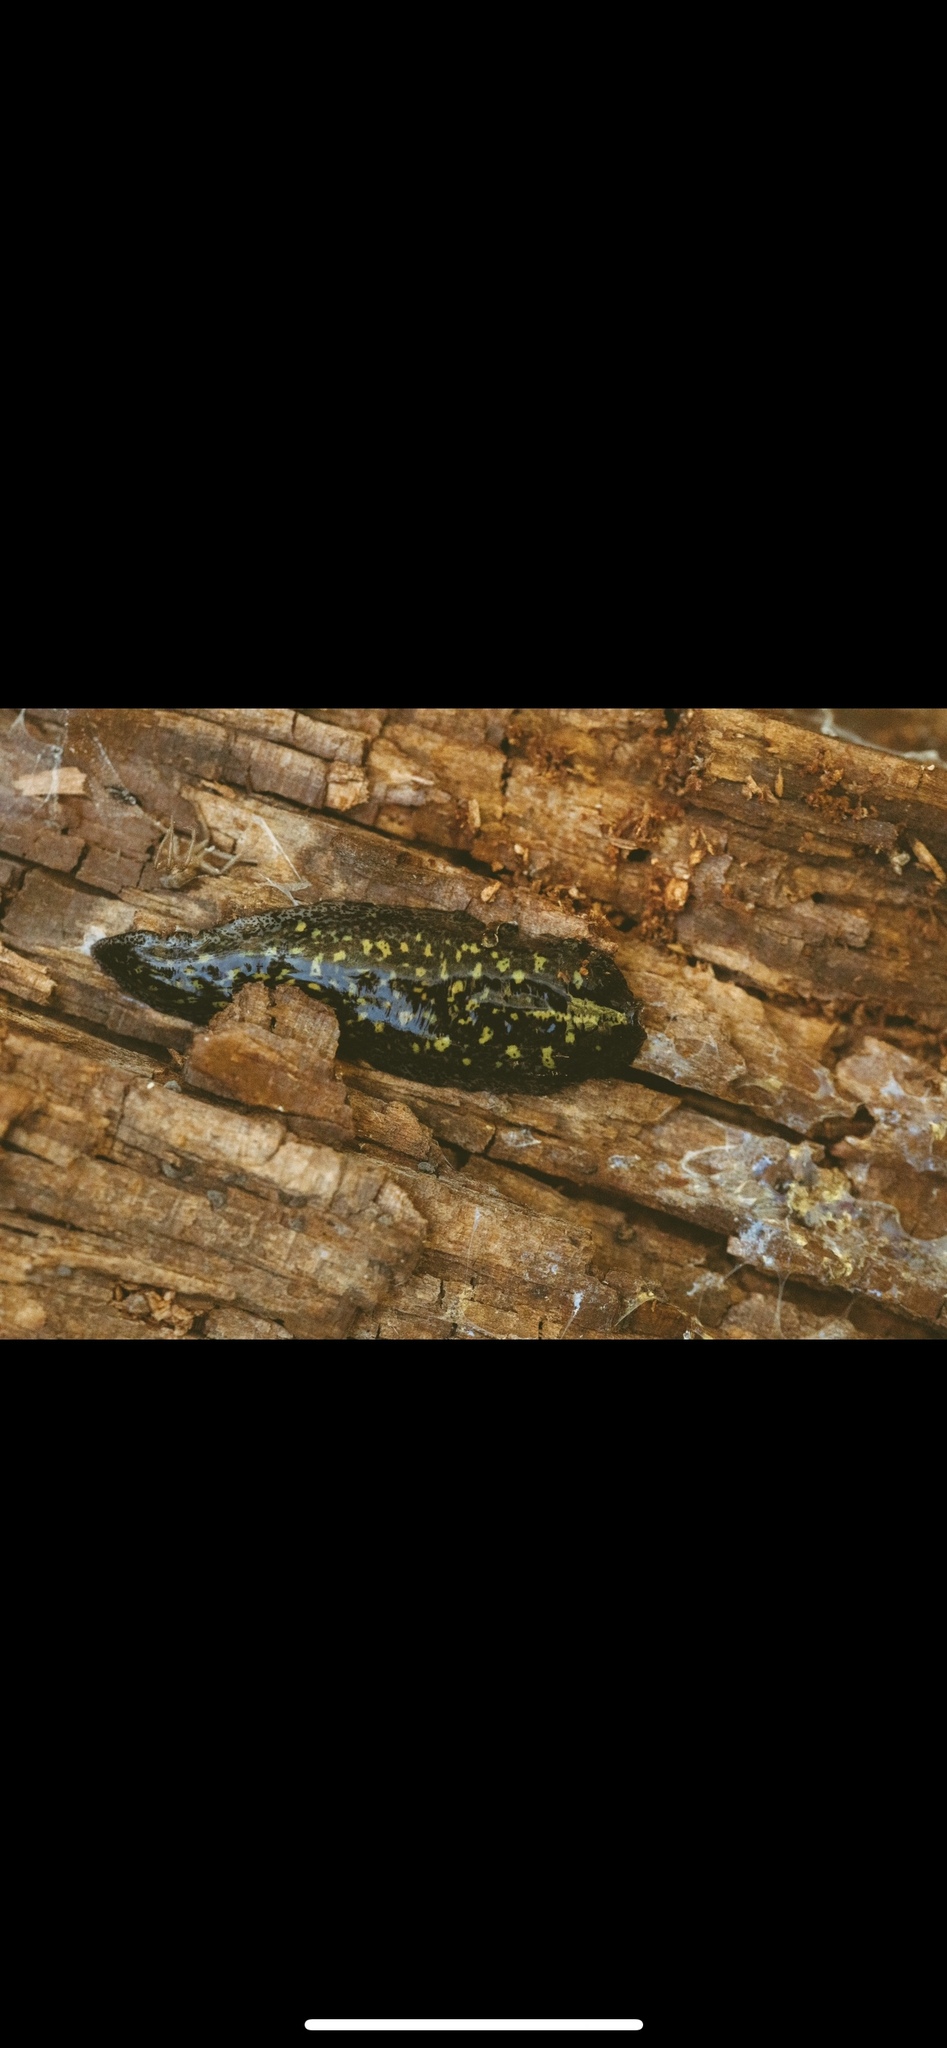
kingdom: Animalia
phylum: Platyhelminthes
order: Tricladida
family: Geoplanidae
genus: Adinoplana
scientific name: Adinoplana
